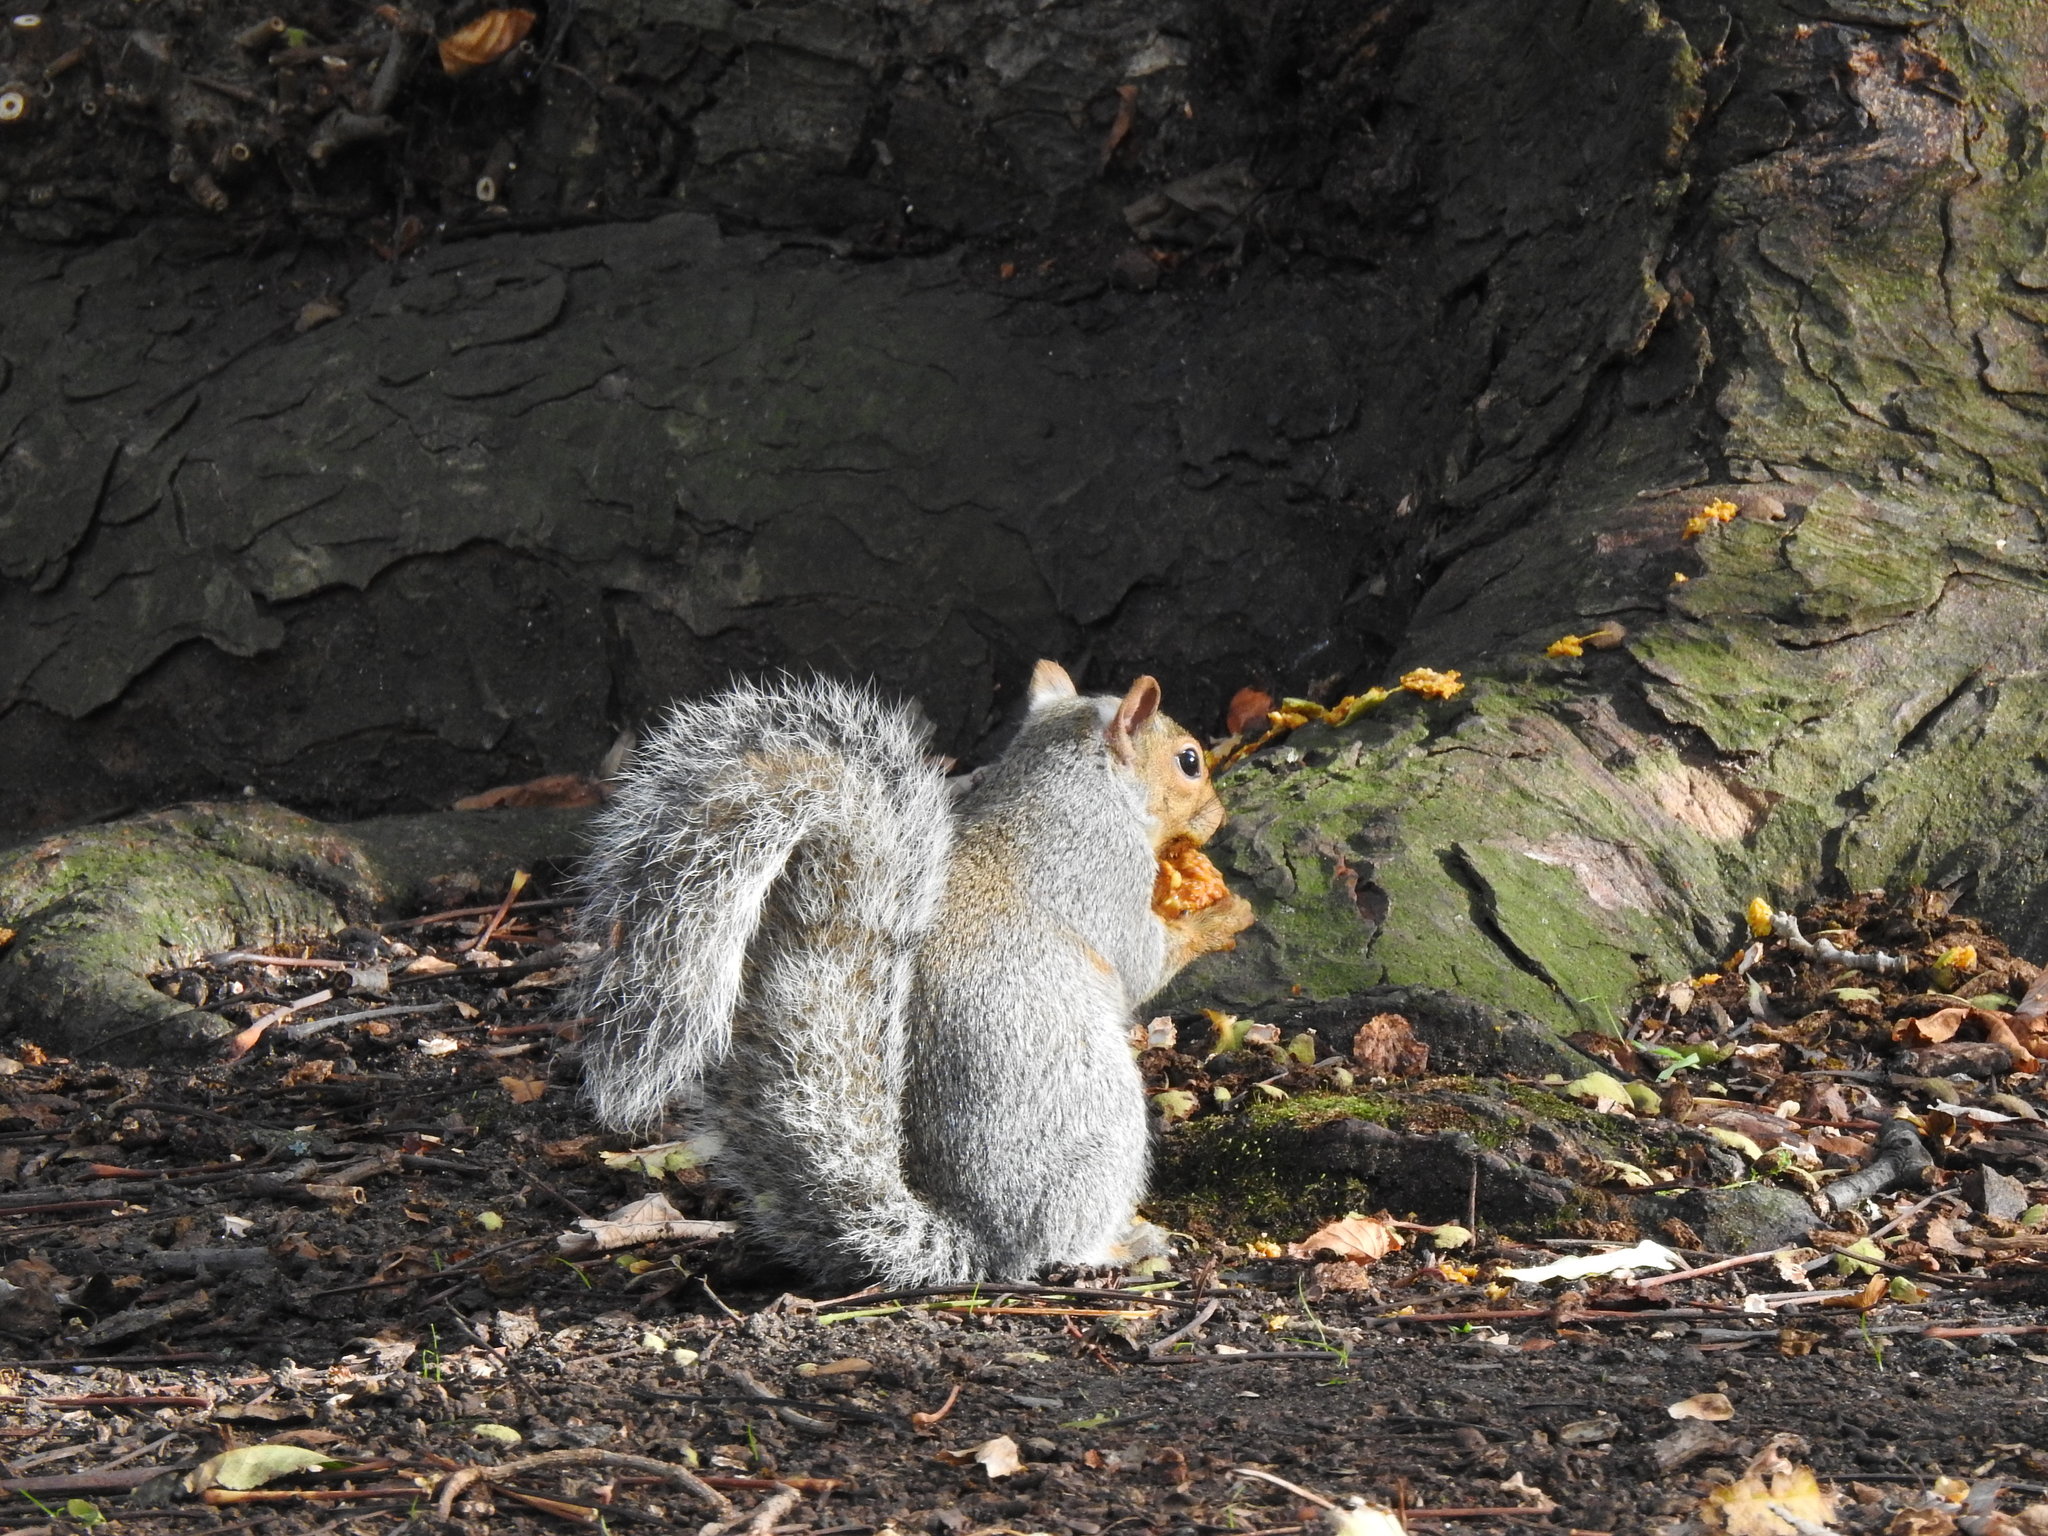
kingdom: Animalia
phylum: Chordata
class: Mammalia
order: Rodentia
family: Sciuridae
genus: Sciurus
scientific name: Sciurus carolinensis
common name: Eastern gray squirrel
